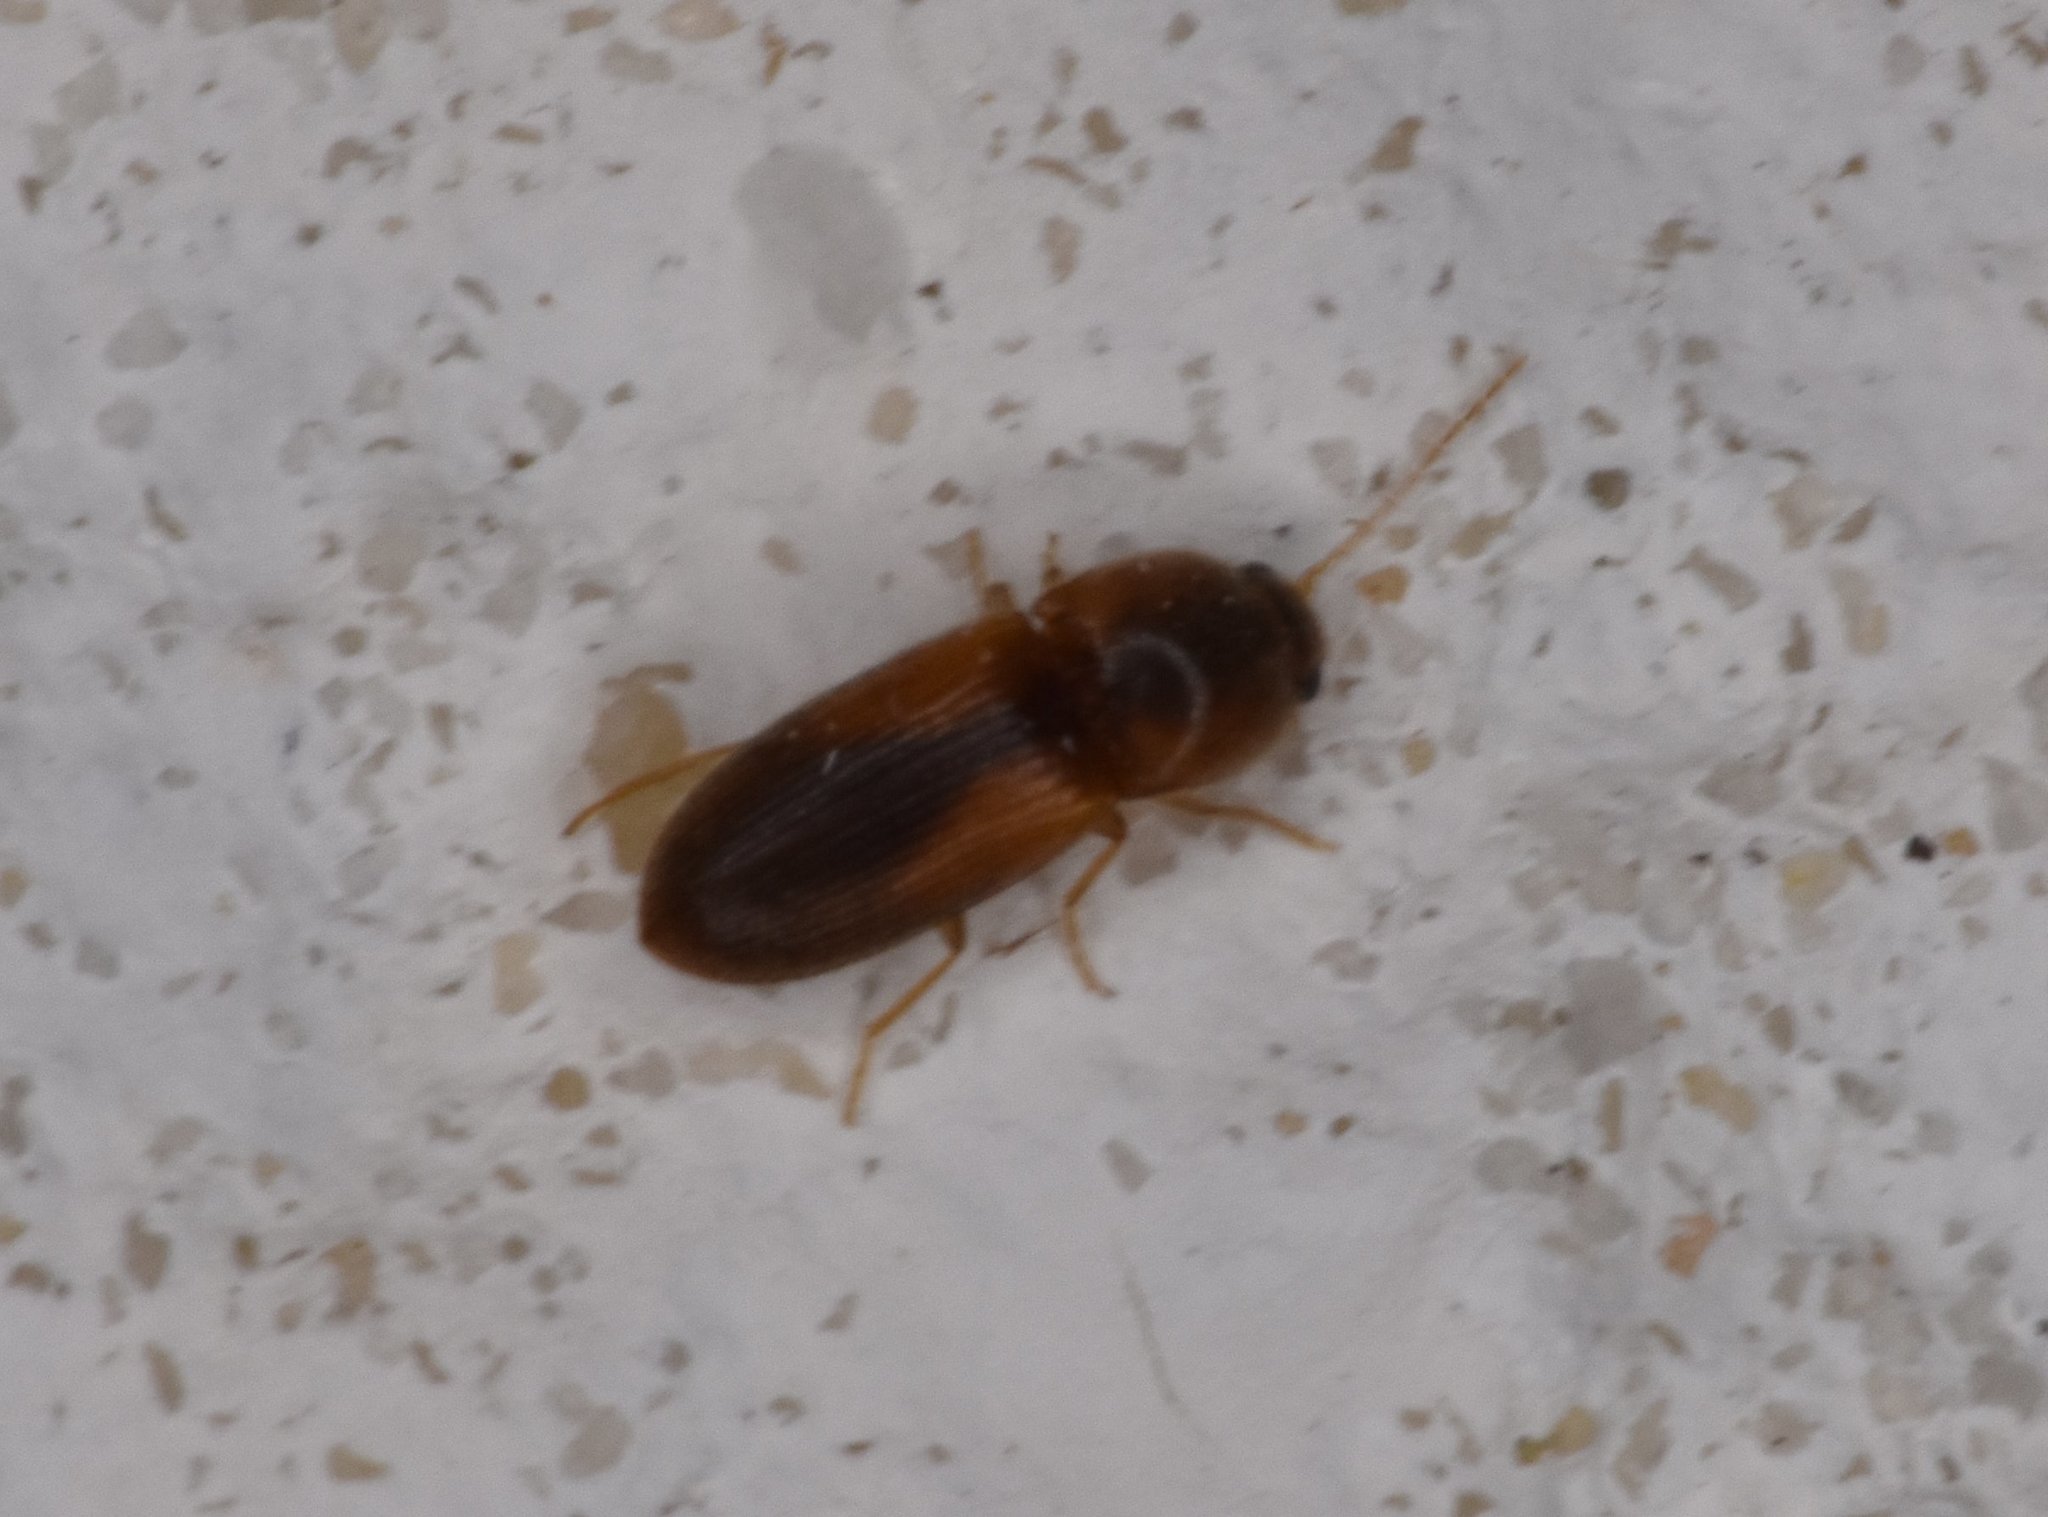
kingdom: Animalia
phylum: Arthropoda
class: Insecta
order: Coleoptera
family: Elateridae
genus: Esthesopus
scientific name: Esthesopus
